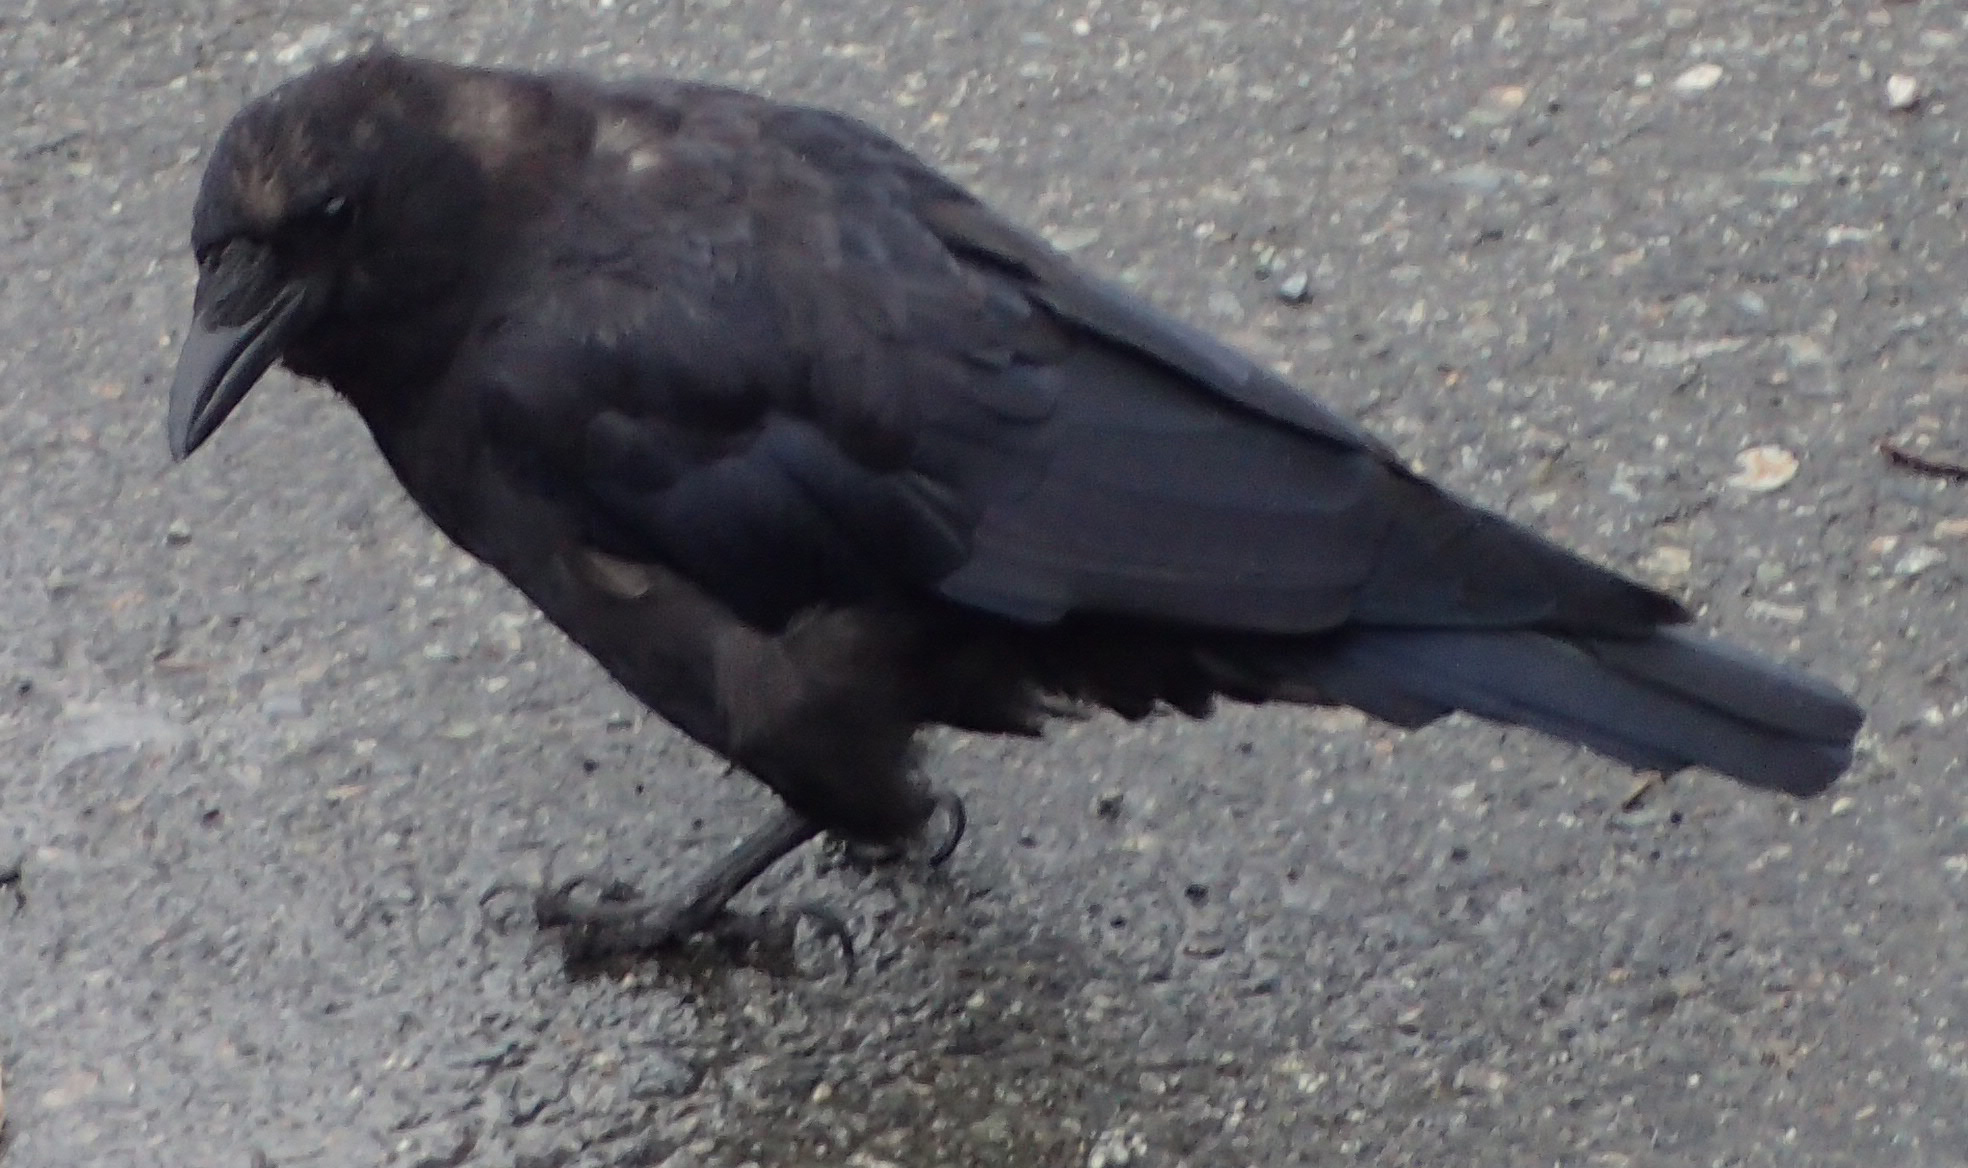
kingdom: Animalia
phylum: Chordata
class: Aves
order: Passeriformes
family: Corvidae
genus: Corvus
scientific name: Corvus brachyrhynchos
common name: American crow
